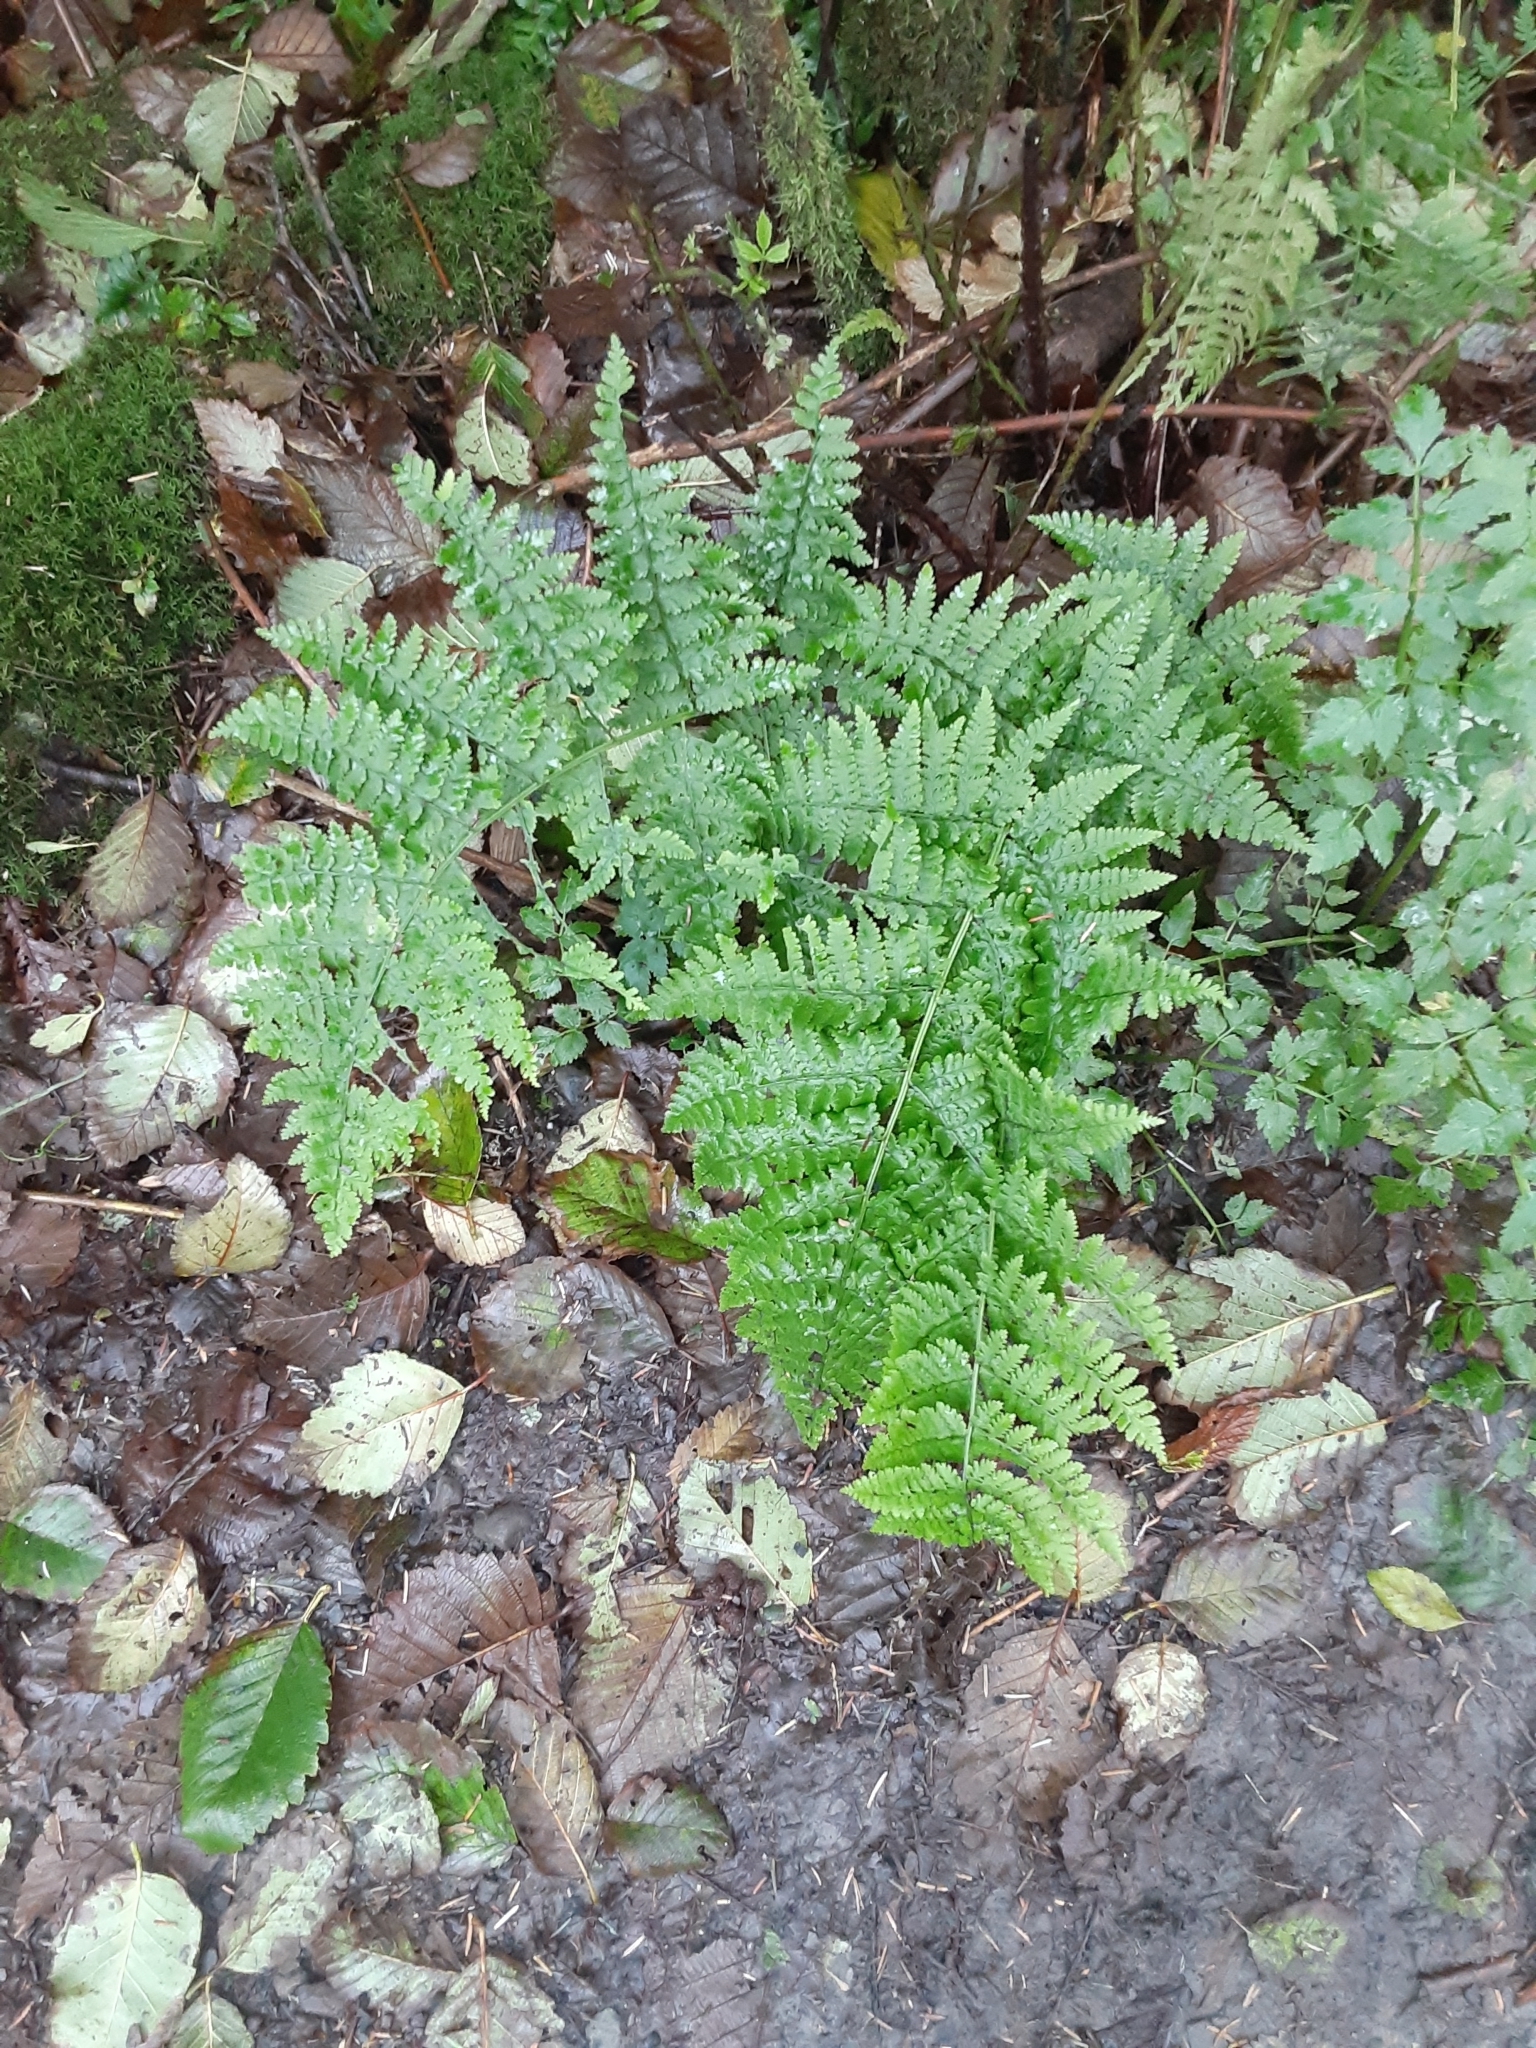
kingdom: Plantae
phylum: Tracheophyta
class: Polypodiopsida
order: Polypodiales
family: Dryopteridaceae
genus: Dryopteris
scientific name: Dryopteris expansa
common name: Northern buckler fern
